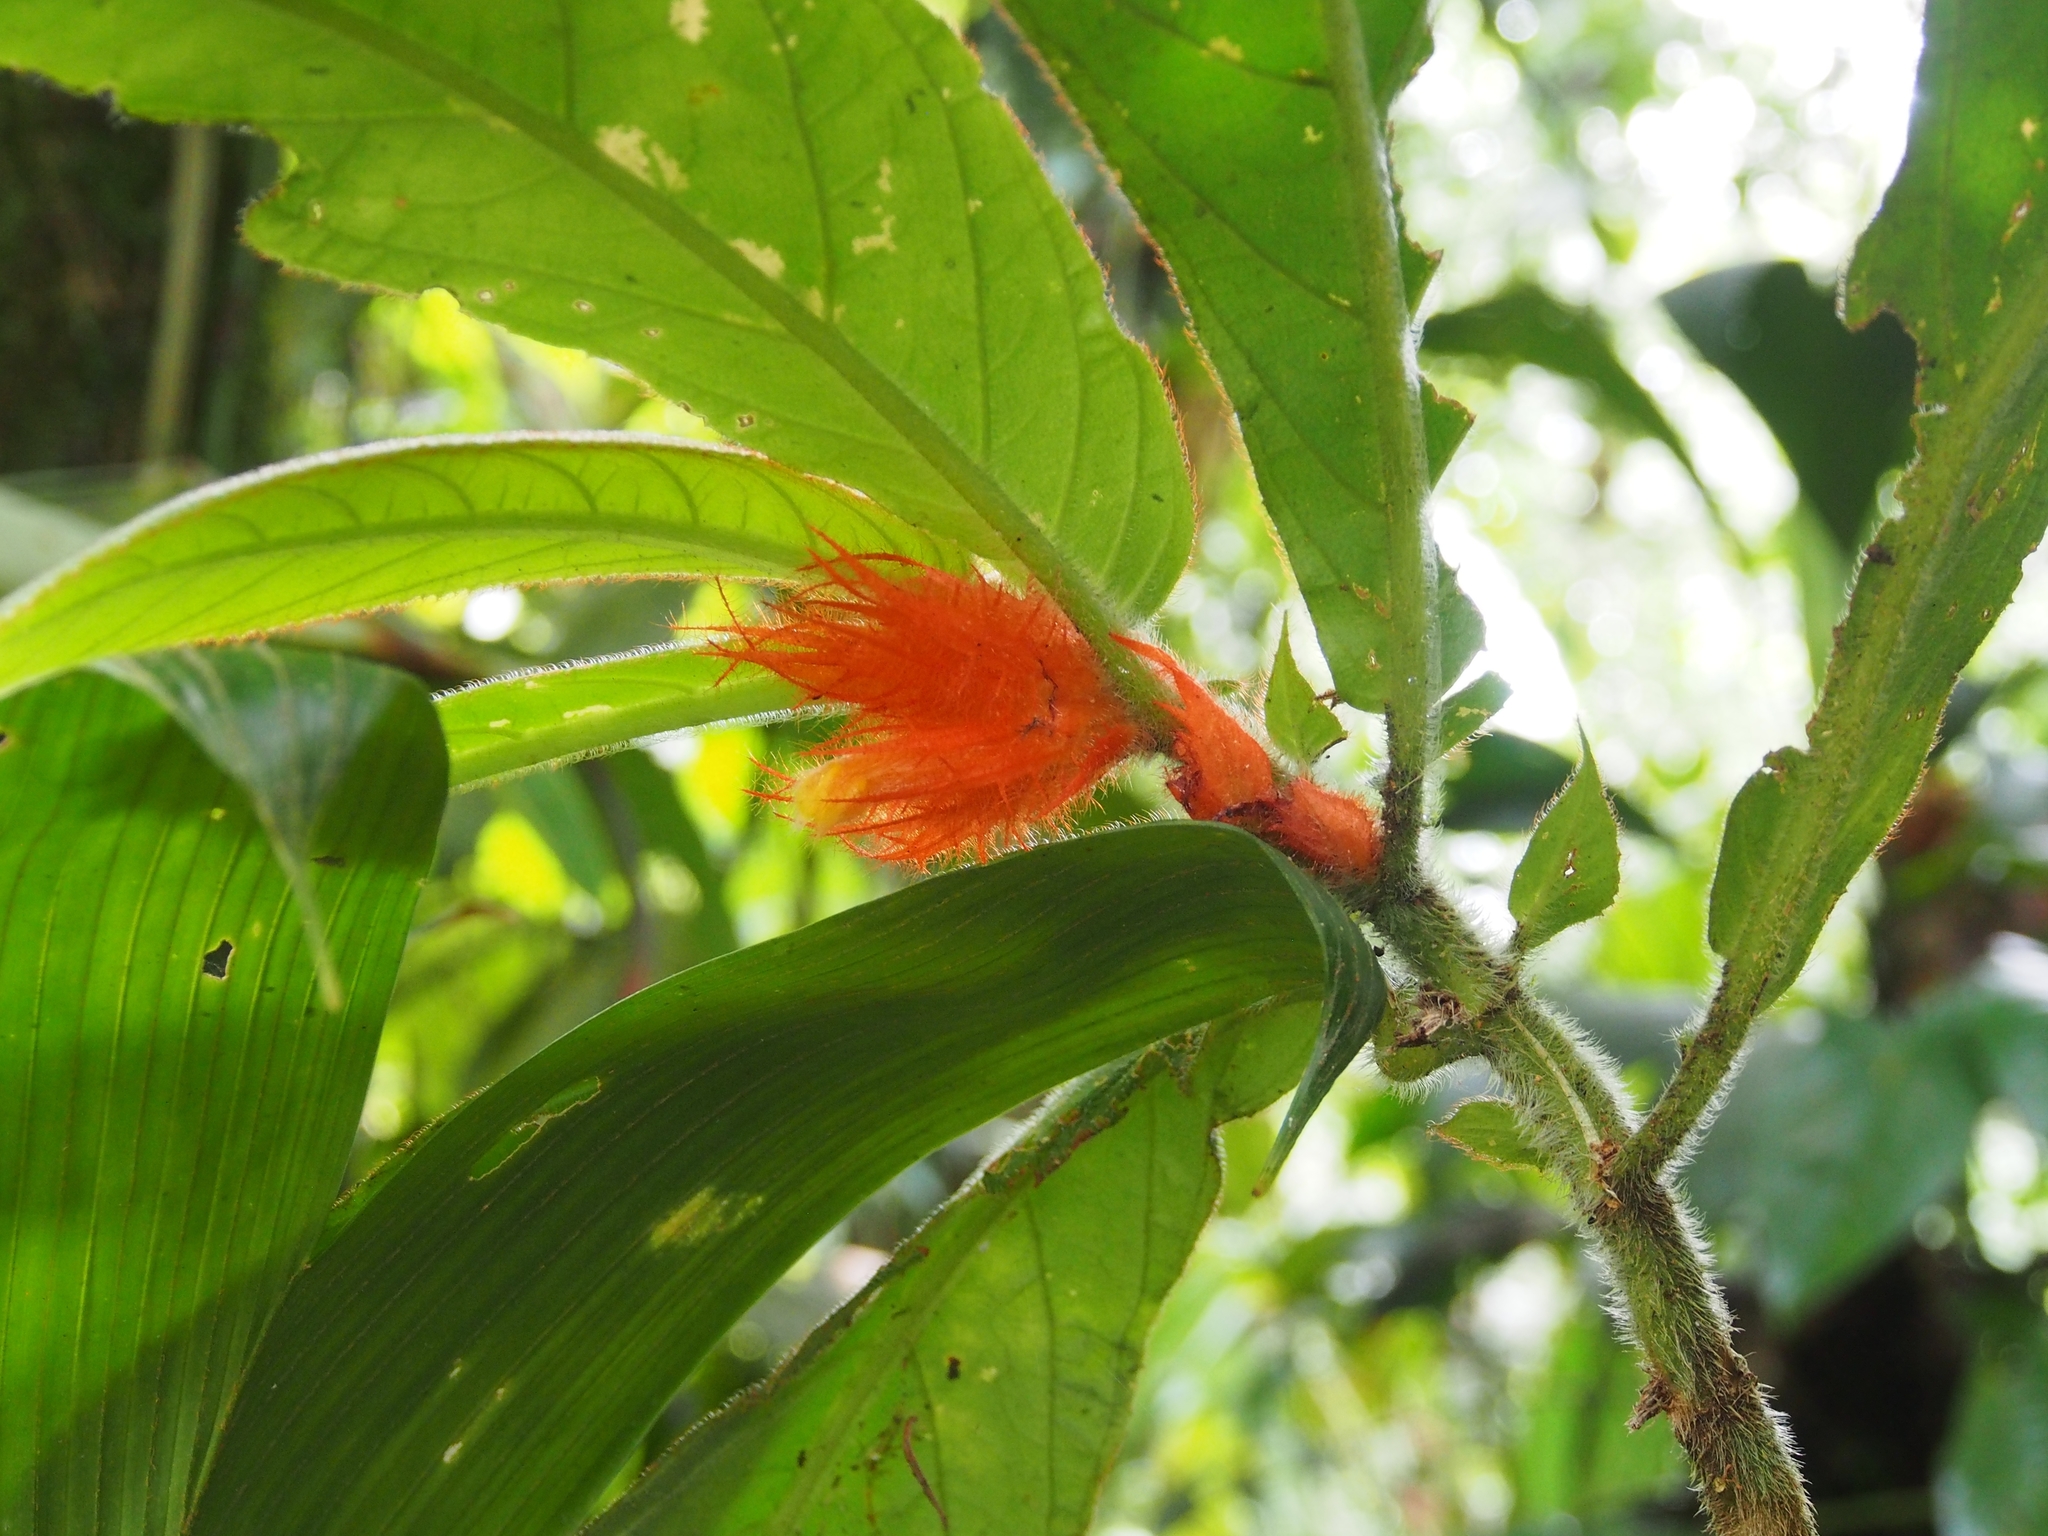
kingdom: Plantae
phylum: Tracheophyta
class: Magnoliopsida
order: Lamiales
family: Gesneriaceae
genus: Columnea
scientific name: Columnea purpurata
